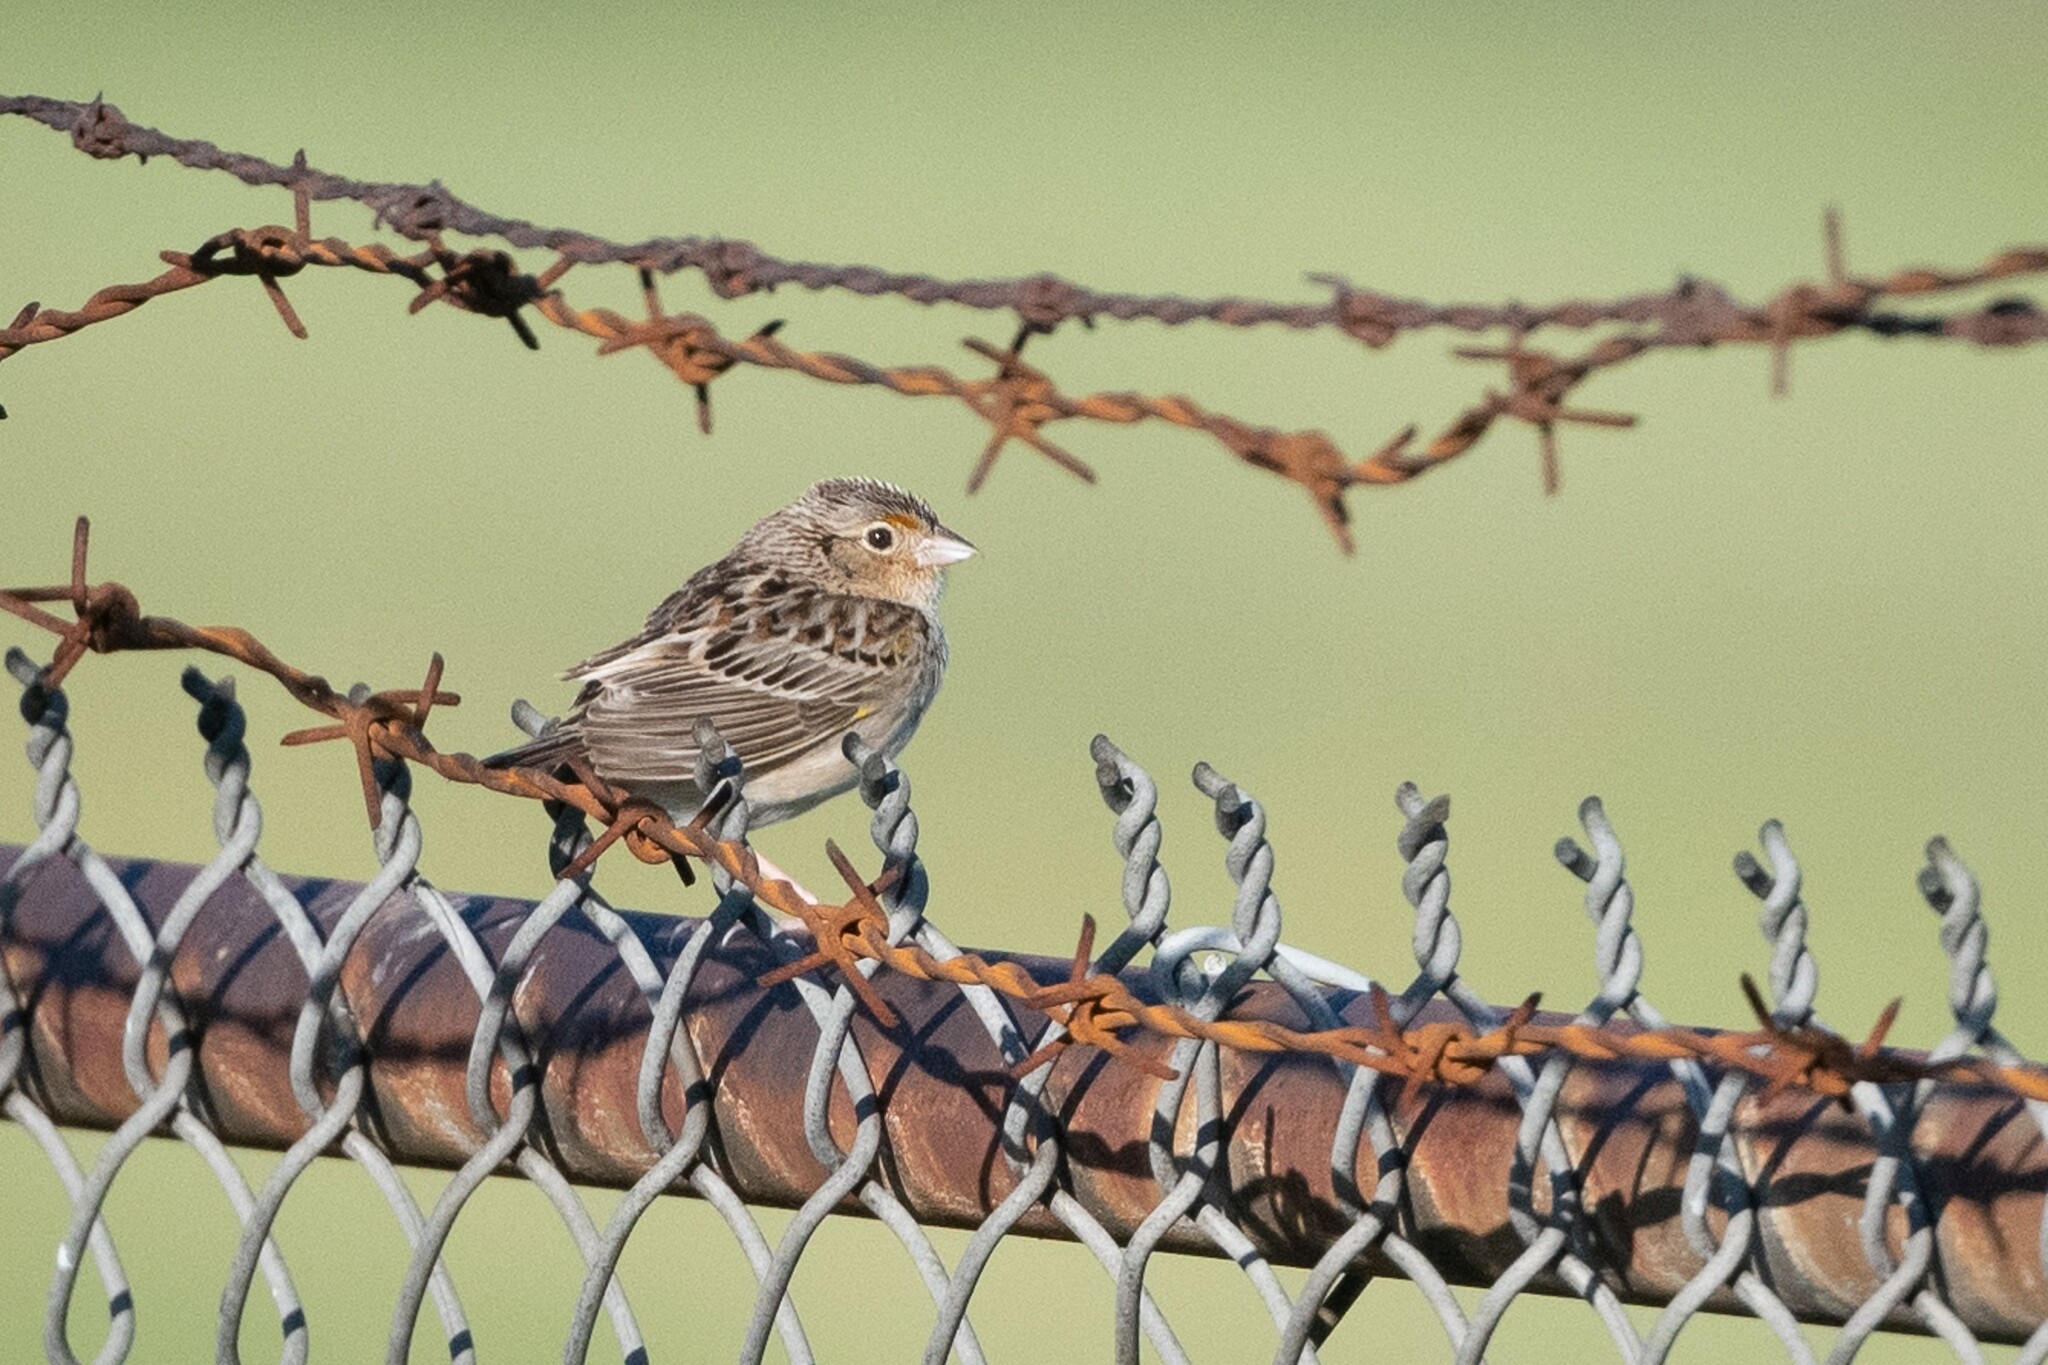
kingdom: Animalia
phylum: Chordata
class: Aves
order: Passeriformes
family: Passerellidae
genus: Ammodramus
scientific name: Ammodramus savannarum
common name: Grasshopper sparrow
